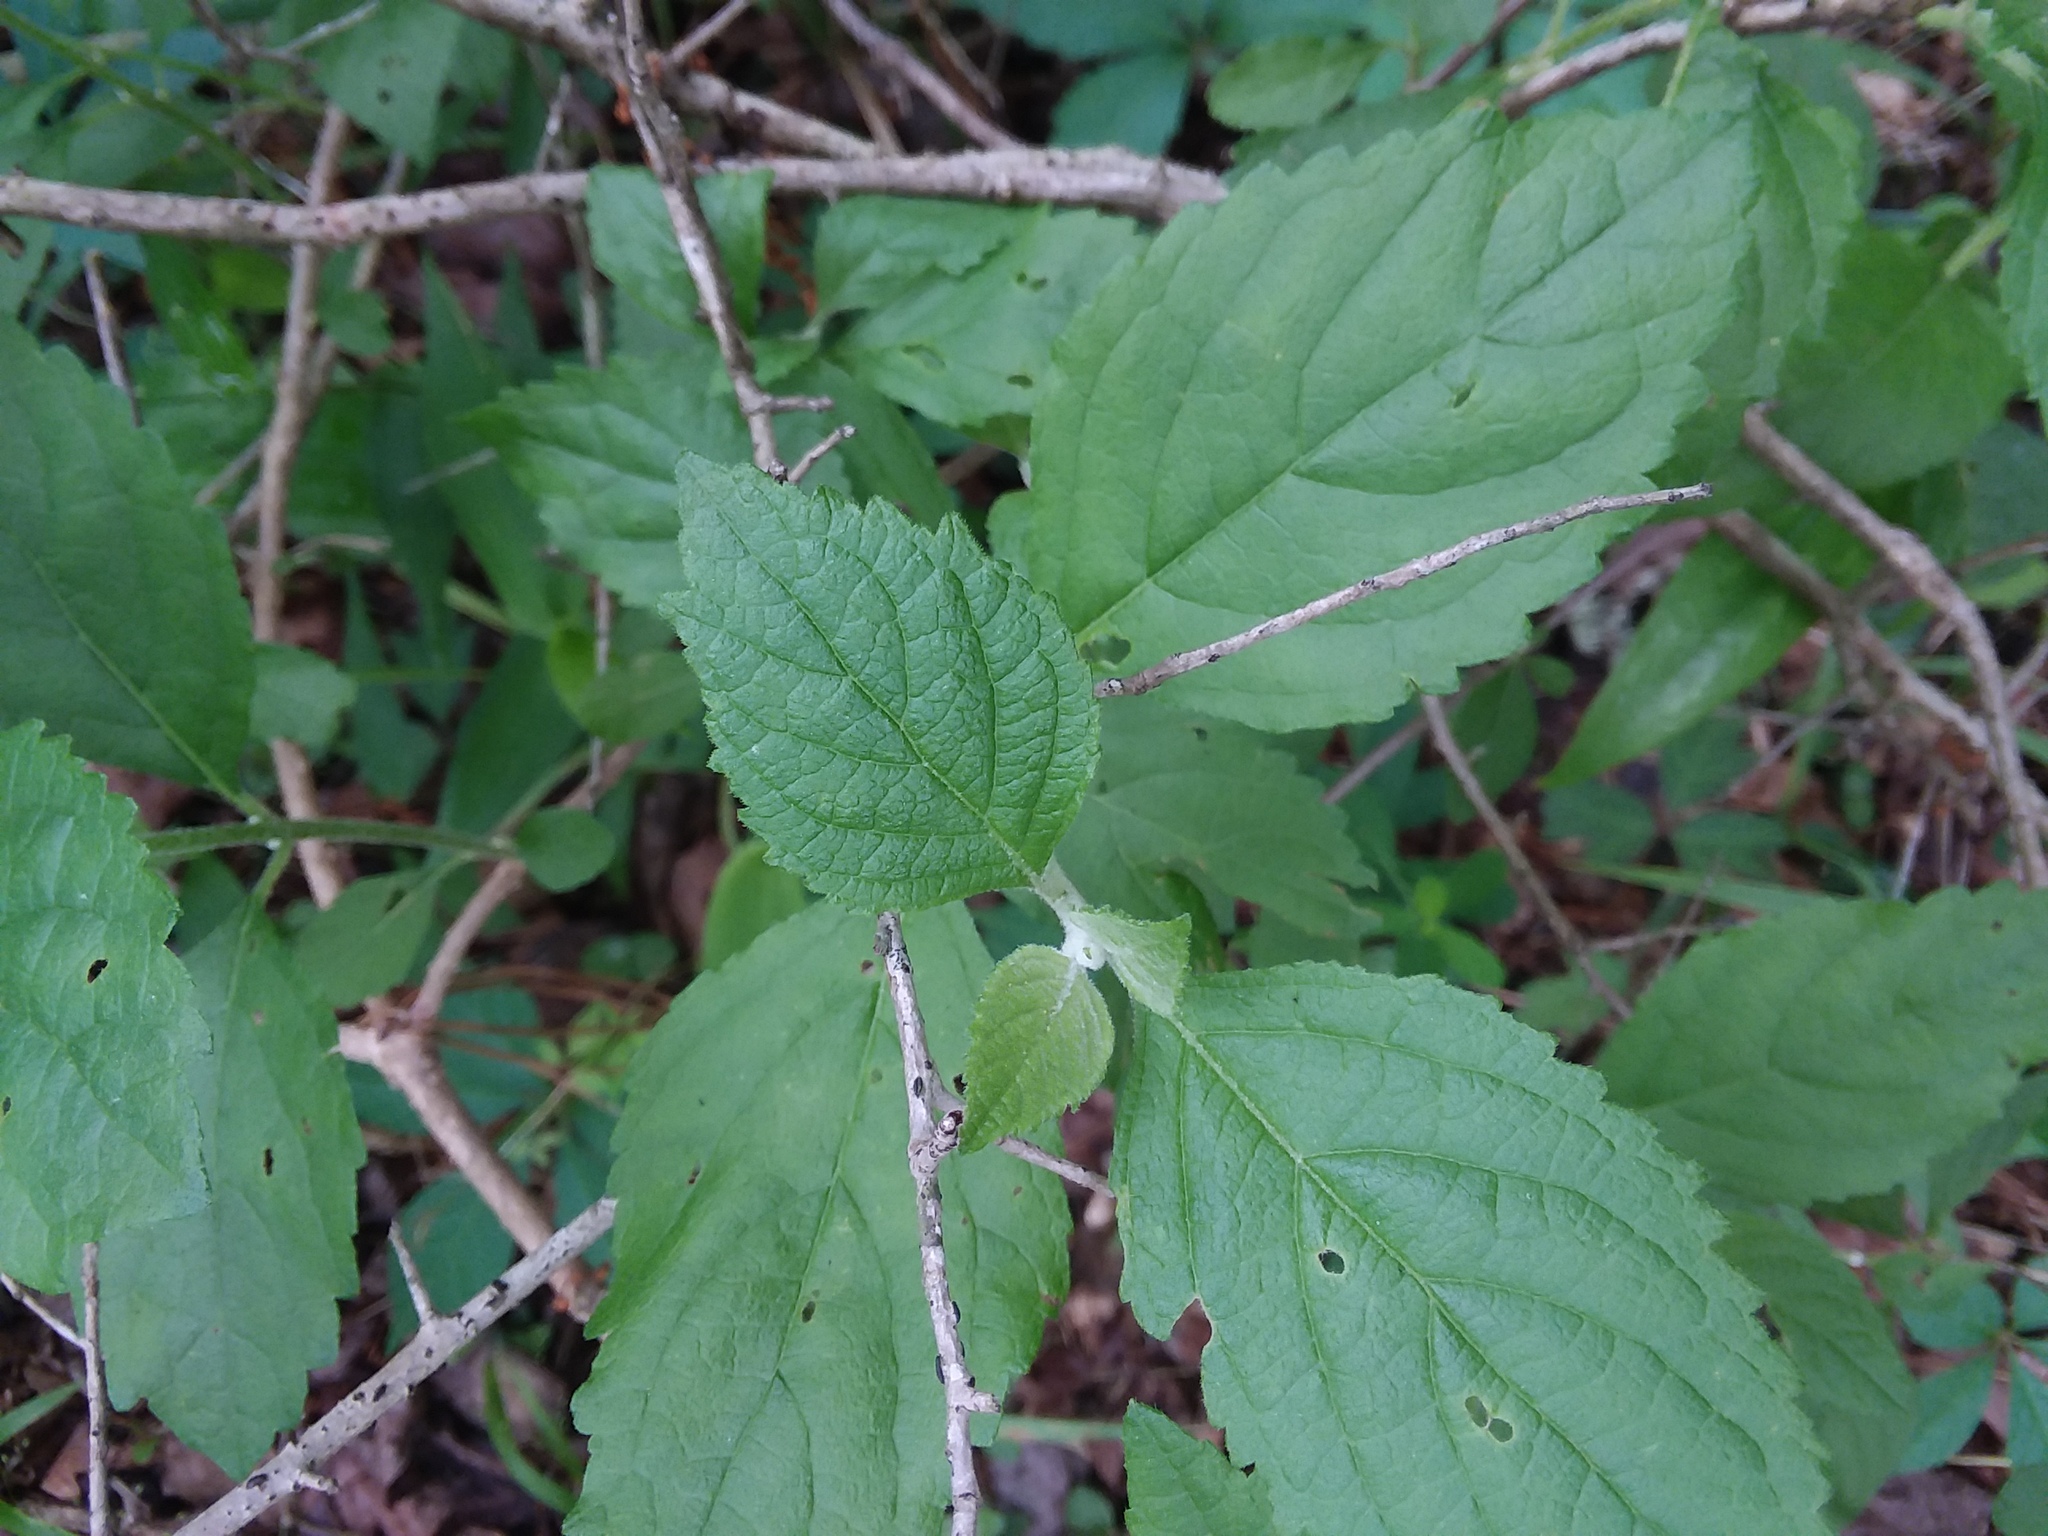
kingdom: Plantae
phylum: Tracheophyta
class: Magnoliopsida
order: Lamiales
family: Lamiaceae
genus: Callicarpa
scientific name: Callicarpa americana
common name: American beautyberry
